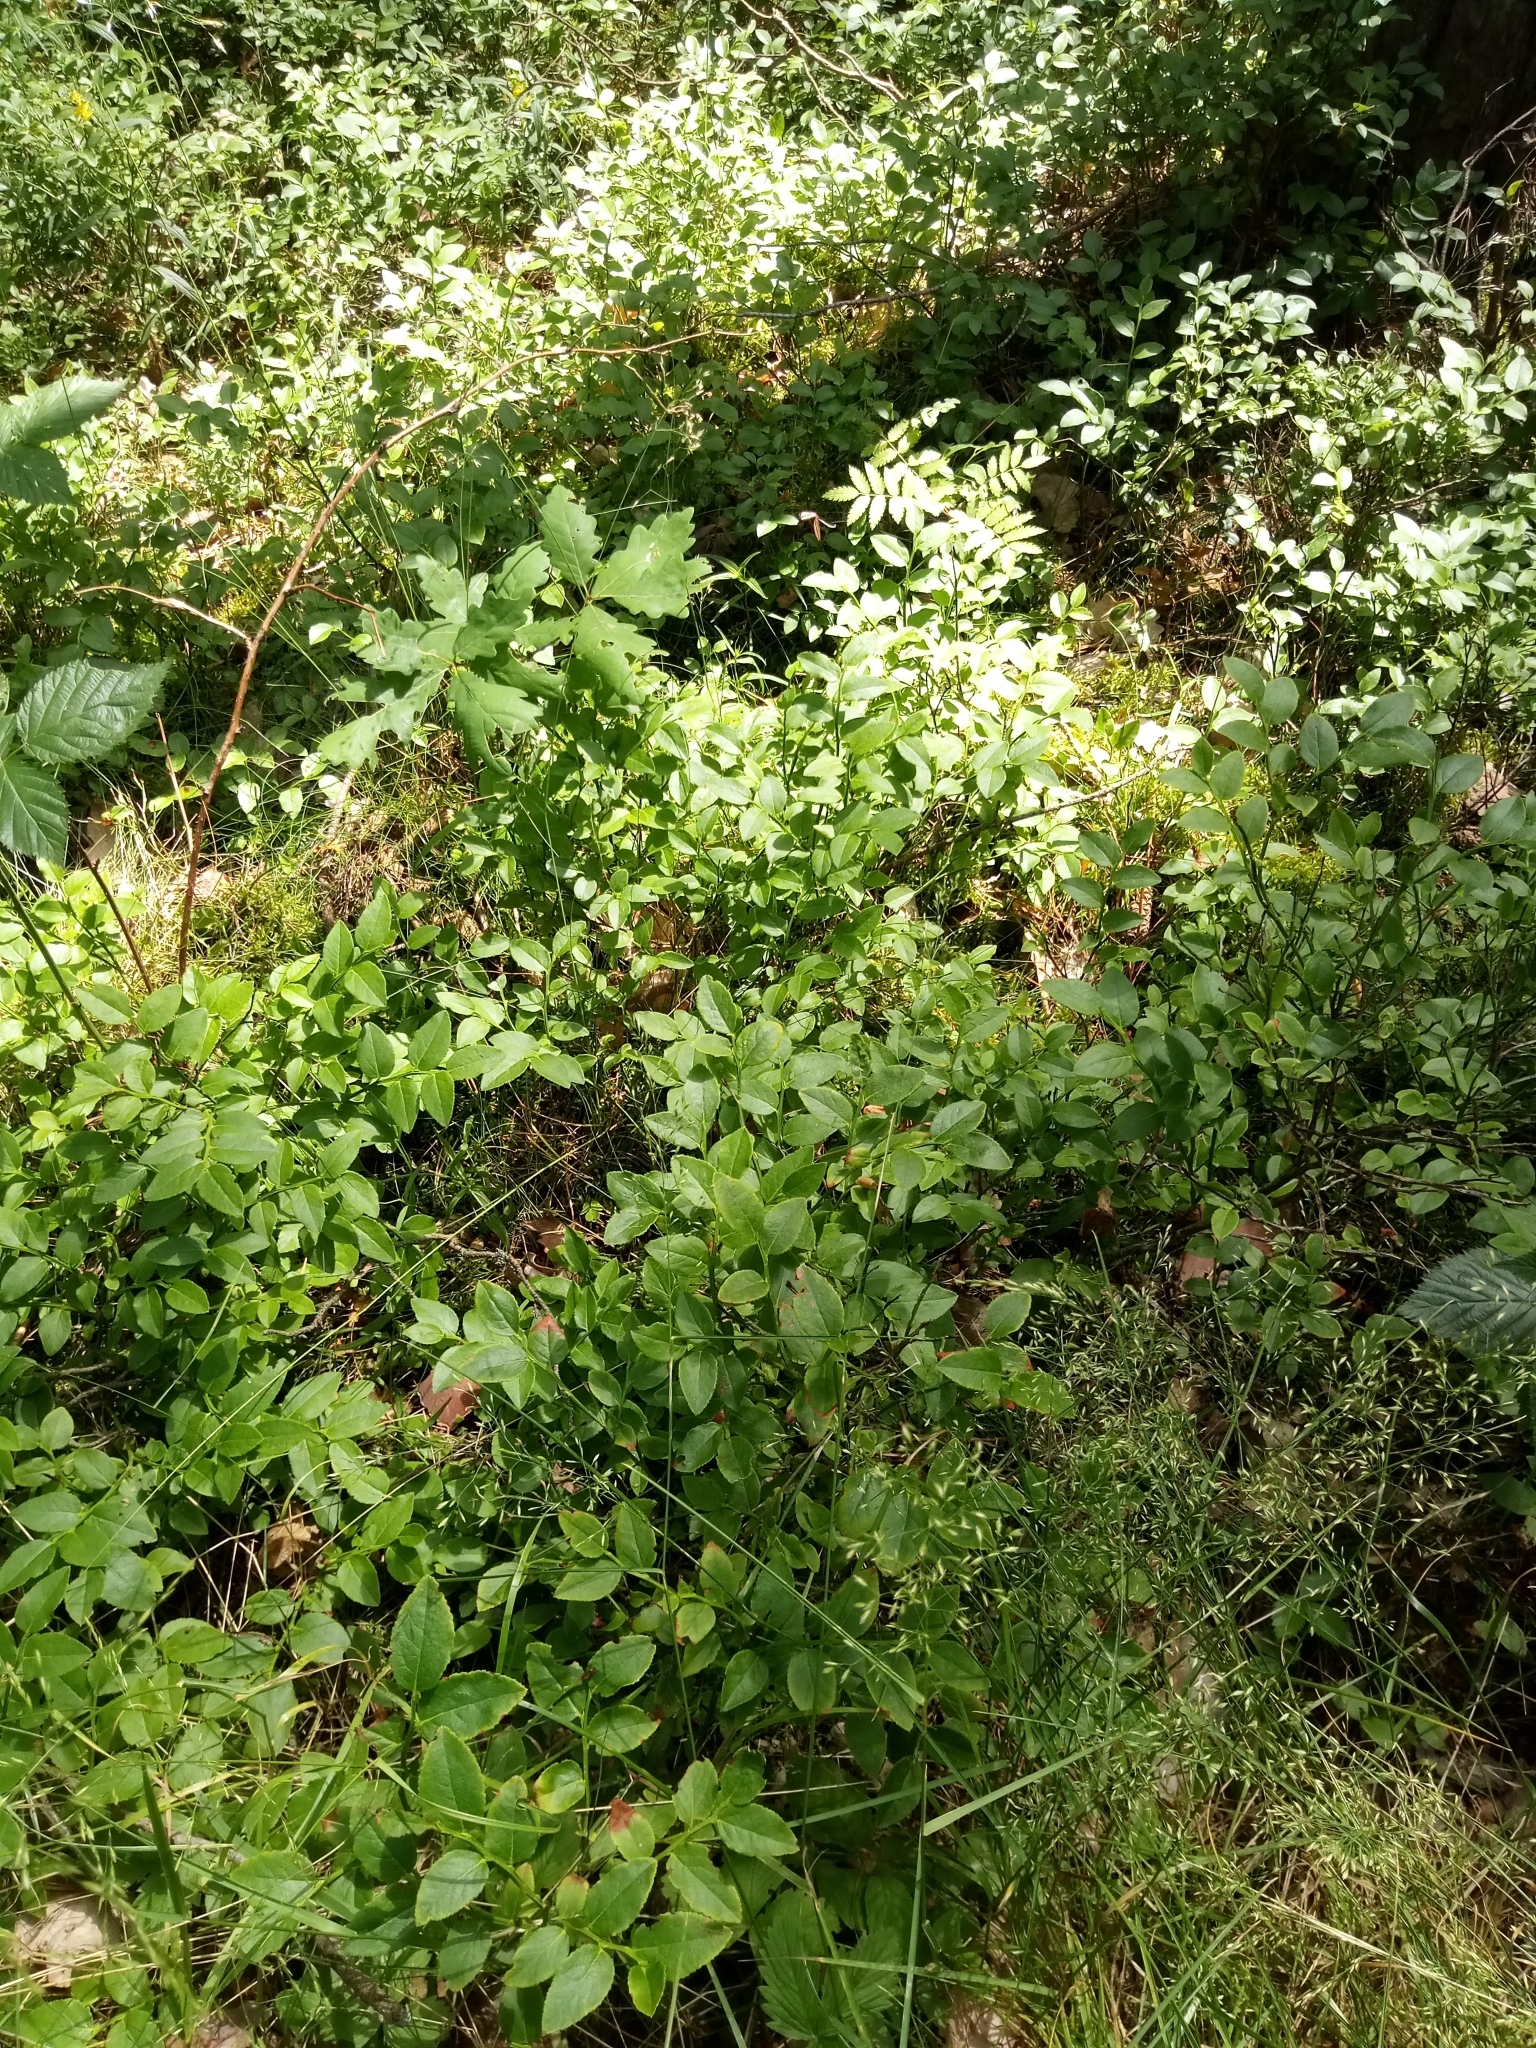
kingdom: Plantae
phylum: Tracheophyta
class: Magnoliopsida
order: Ericales
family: Ericaceae
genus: Vaccinium
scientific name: Vaccinium myrtillus
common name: Bilberry
